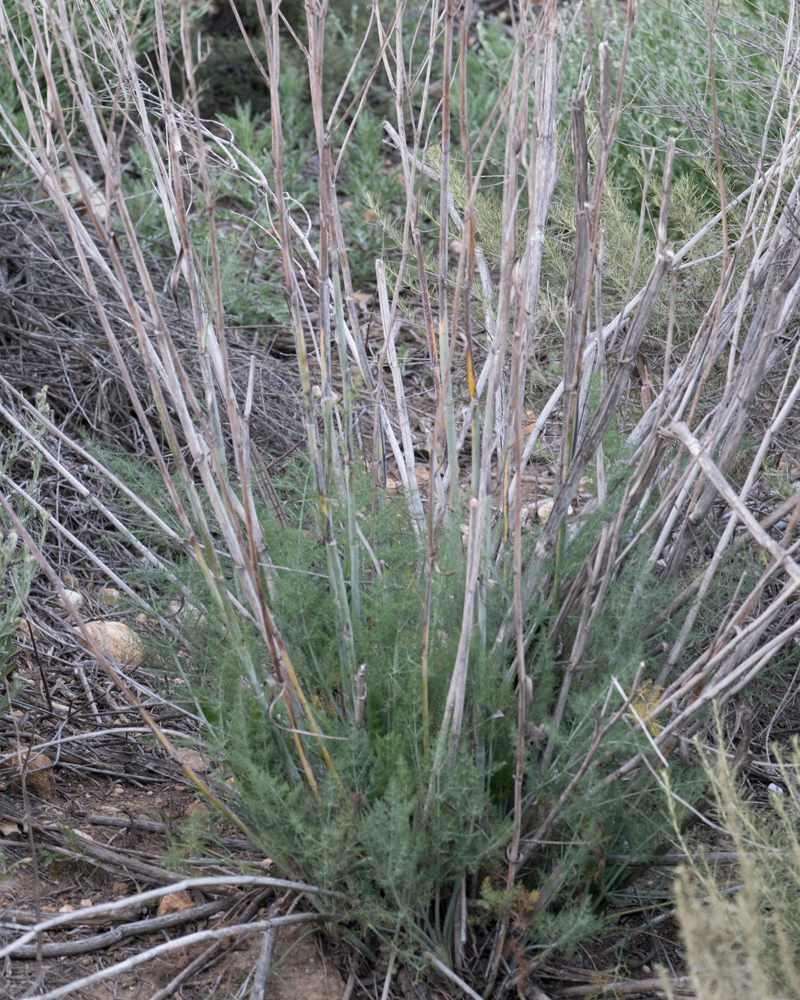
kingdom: Plantae
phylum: Tracheophyta
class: Magnoliopsida
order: Apiales
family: Apiaceae
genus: Foeniculum
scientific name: Foeniculum vulgare
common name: Fennel
